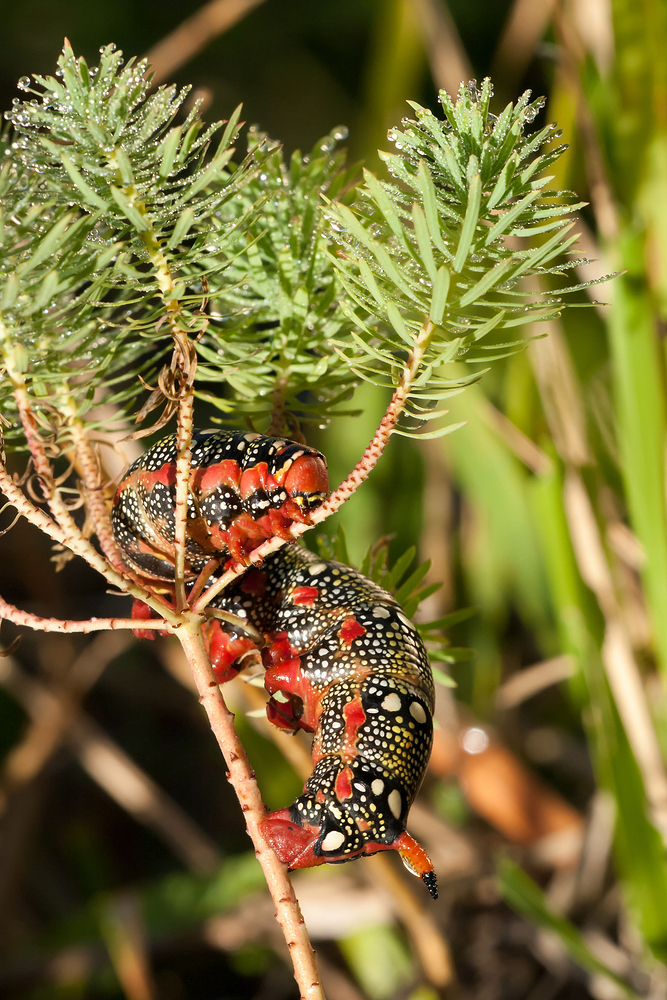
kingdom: Animalia
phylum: Arthropoda
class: Insecta
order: Lepidoptera
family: Sphingidae
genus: Hyles
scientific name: Hyles euphorbiae
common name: Spurge hawk-moth
